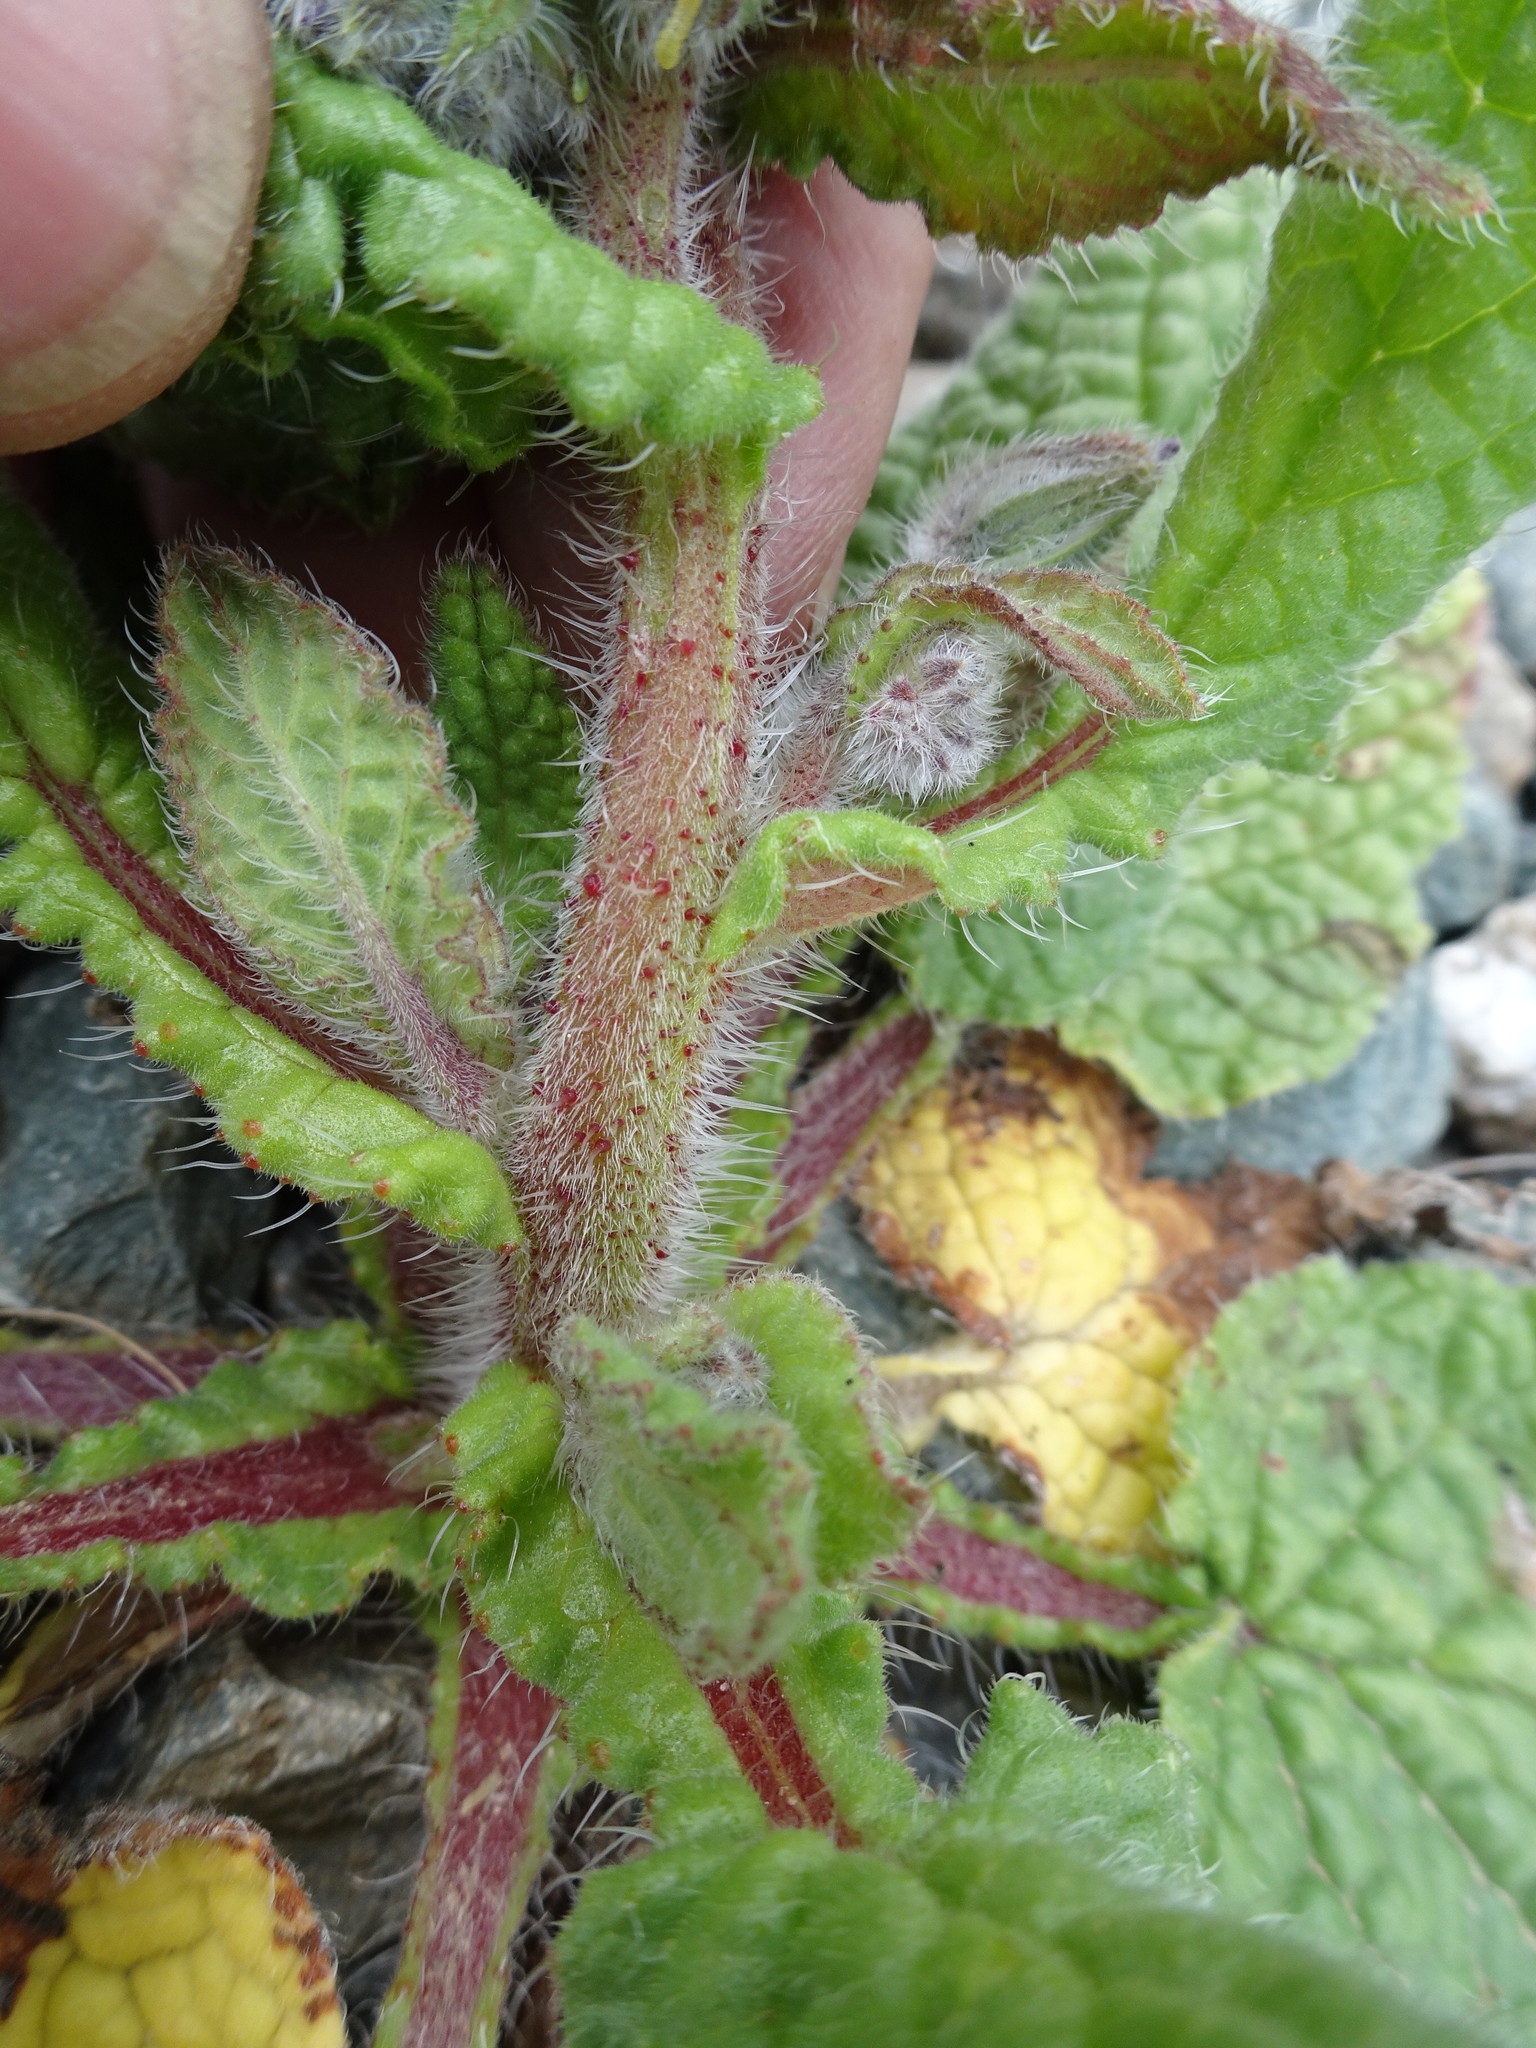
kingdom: Plantae
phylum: Tracheophyta
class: Magnoliopsida
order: Boraginales
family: Boraginaceae
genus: Borago
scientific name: Borago officinalis
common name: Borage
